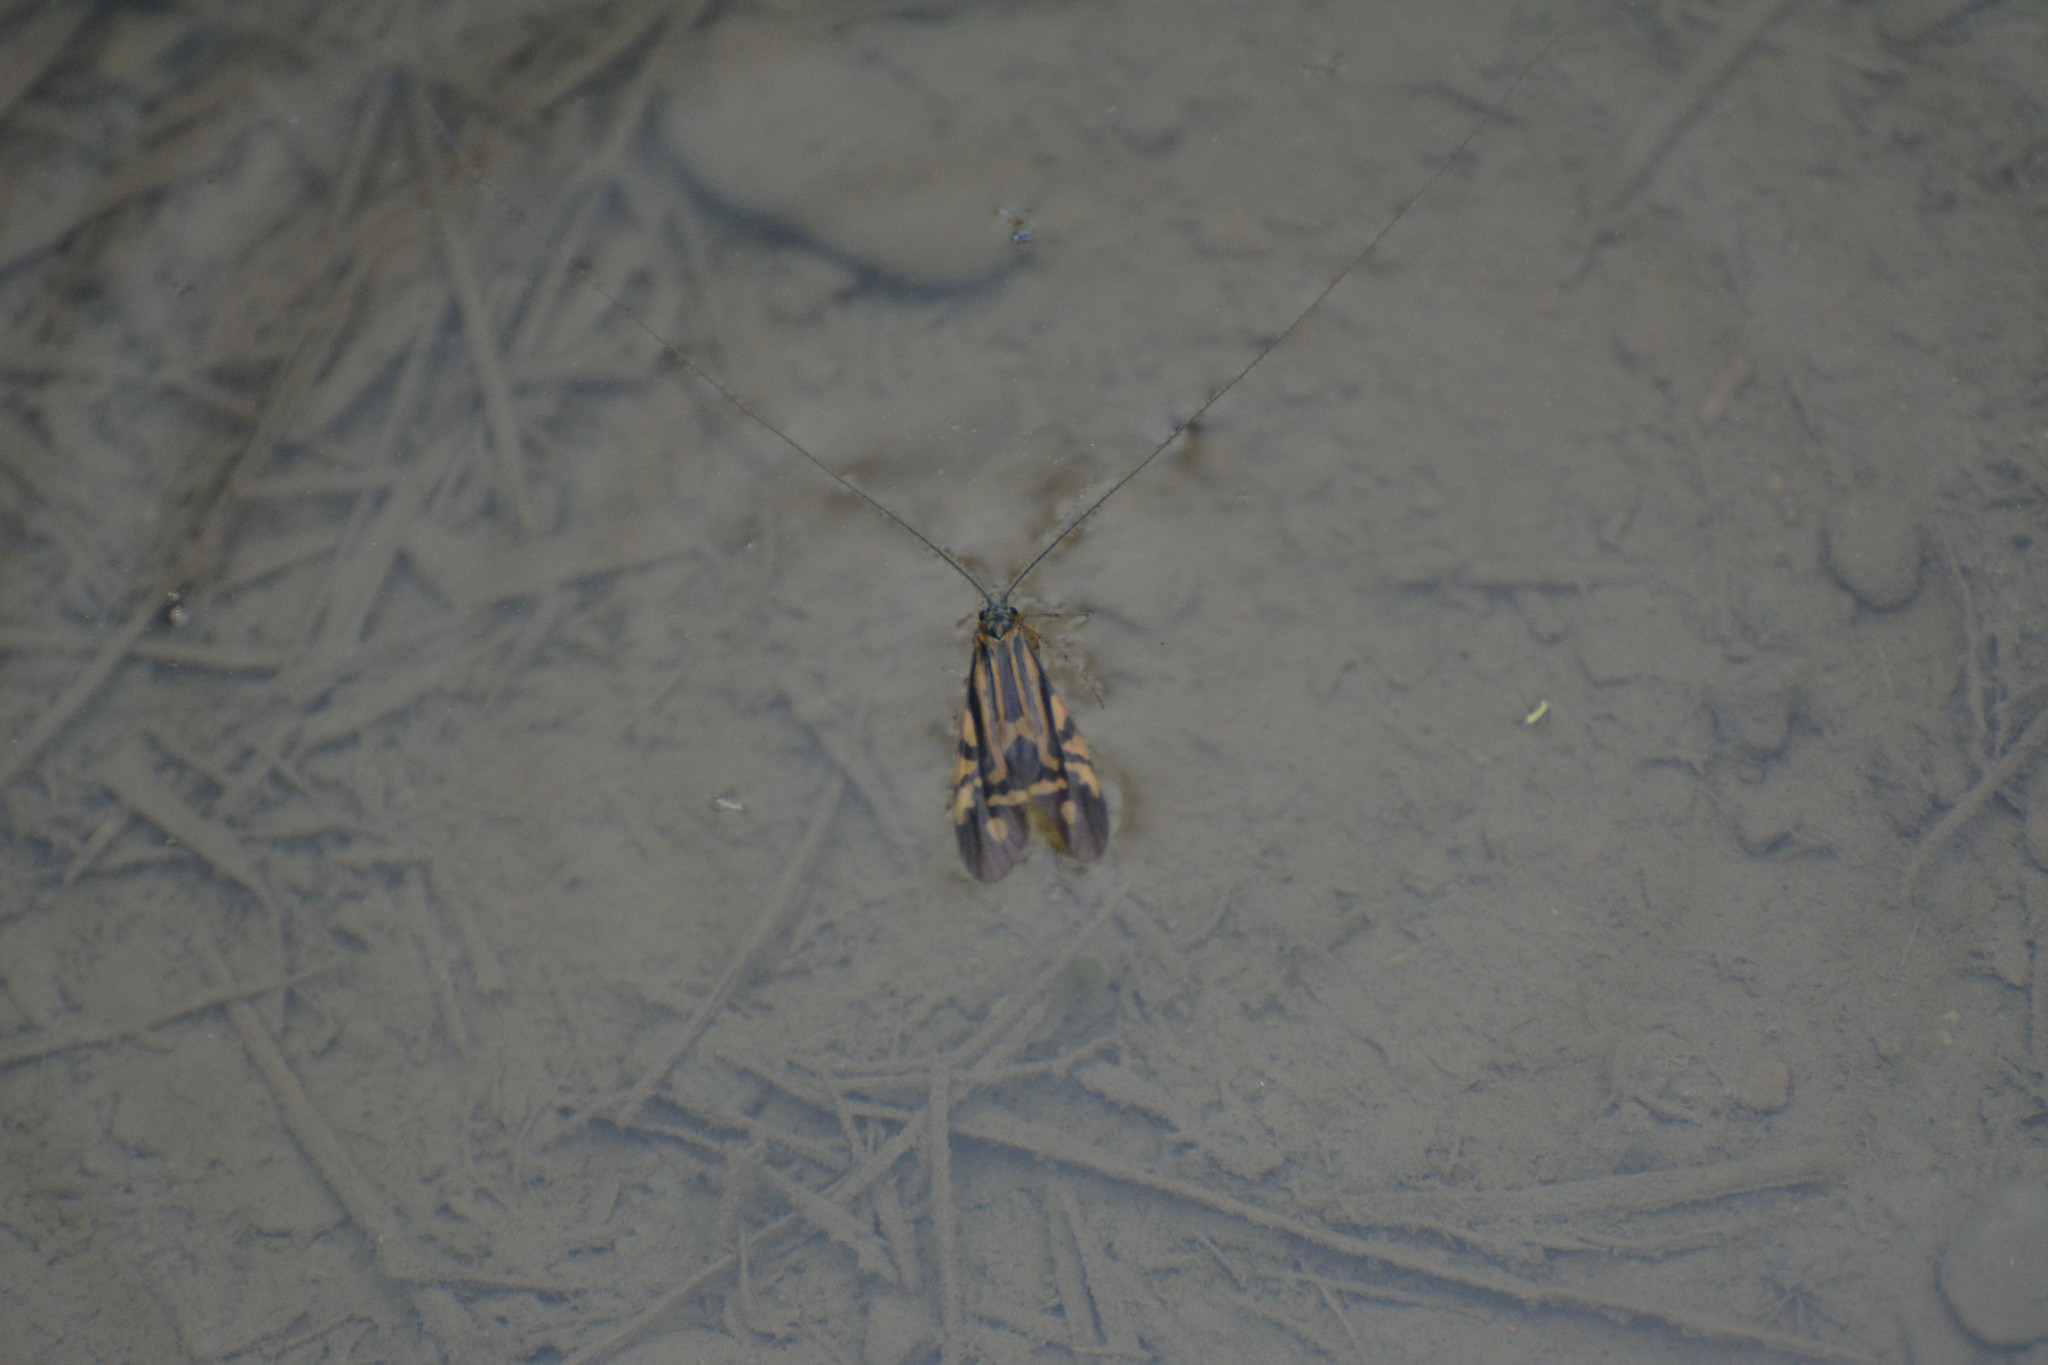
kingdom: Animalia
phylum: Arthropoda
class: Insecta
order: Trichoptera
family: Hydropsychidae
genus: Macrostemum
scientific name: Macrostemum zebratum
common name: Zebra caddisfly
